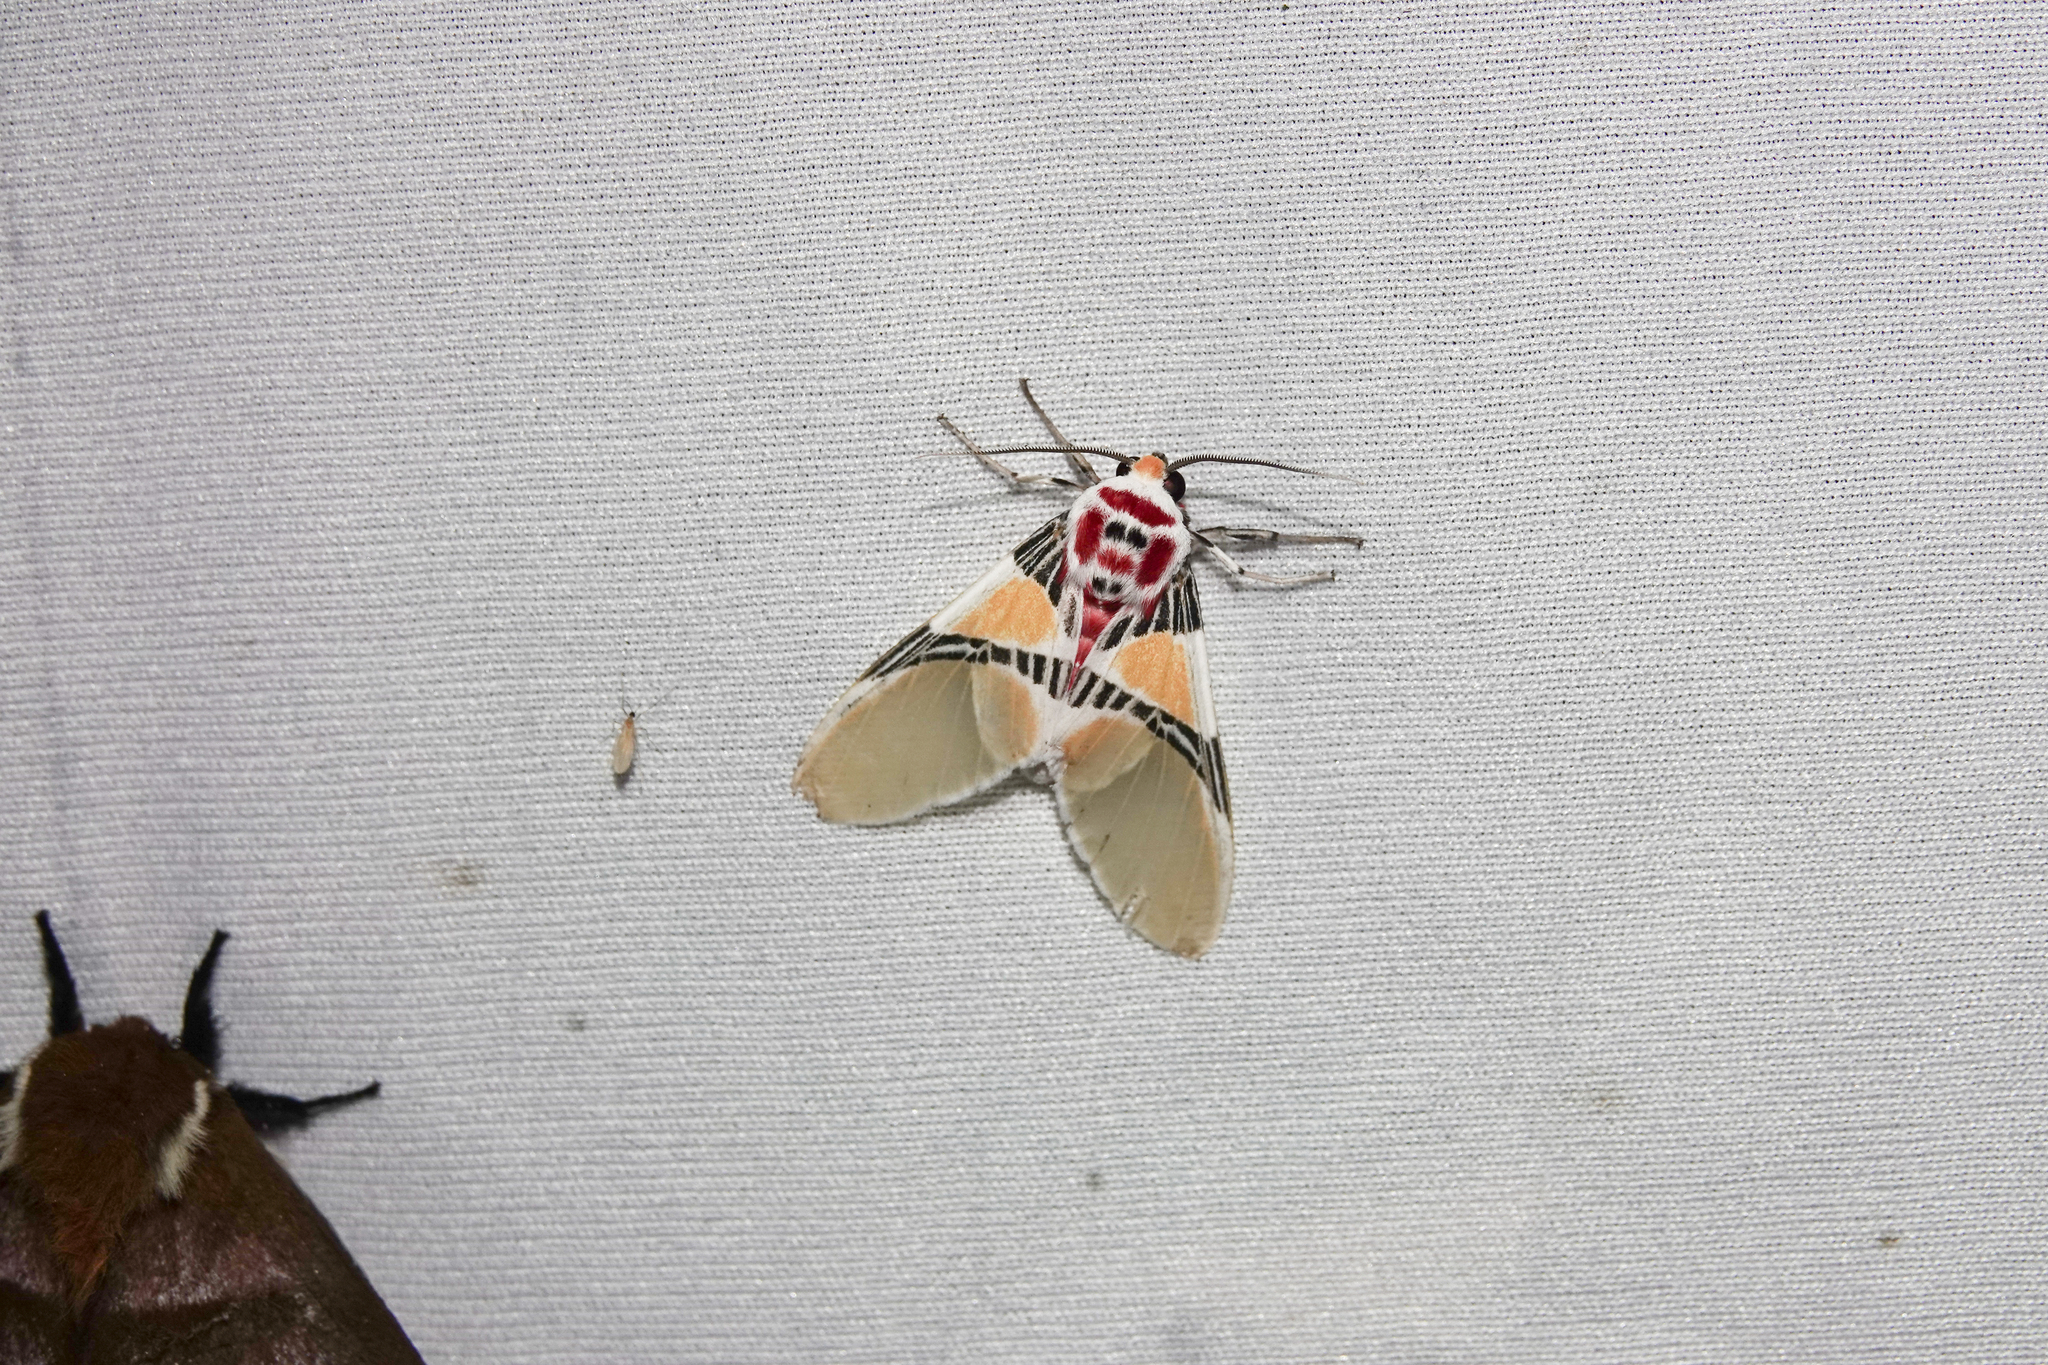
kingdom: Animalia
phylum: Arthropoda
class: Insecta
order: Lepidoptera
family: Erebidae
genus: Idalus
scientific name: Idalus herois
